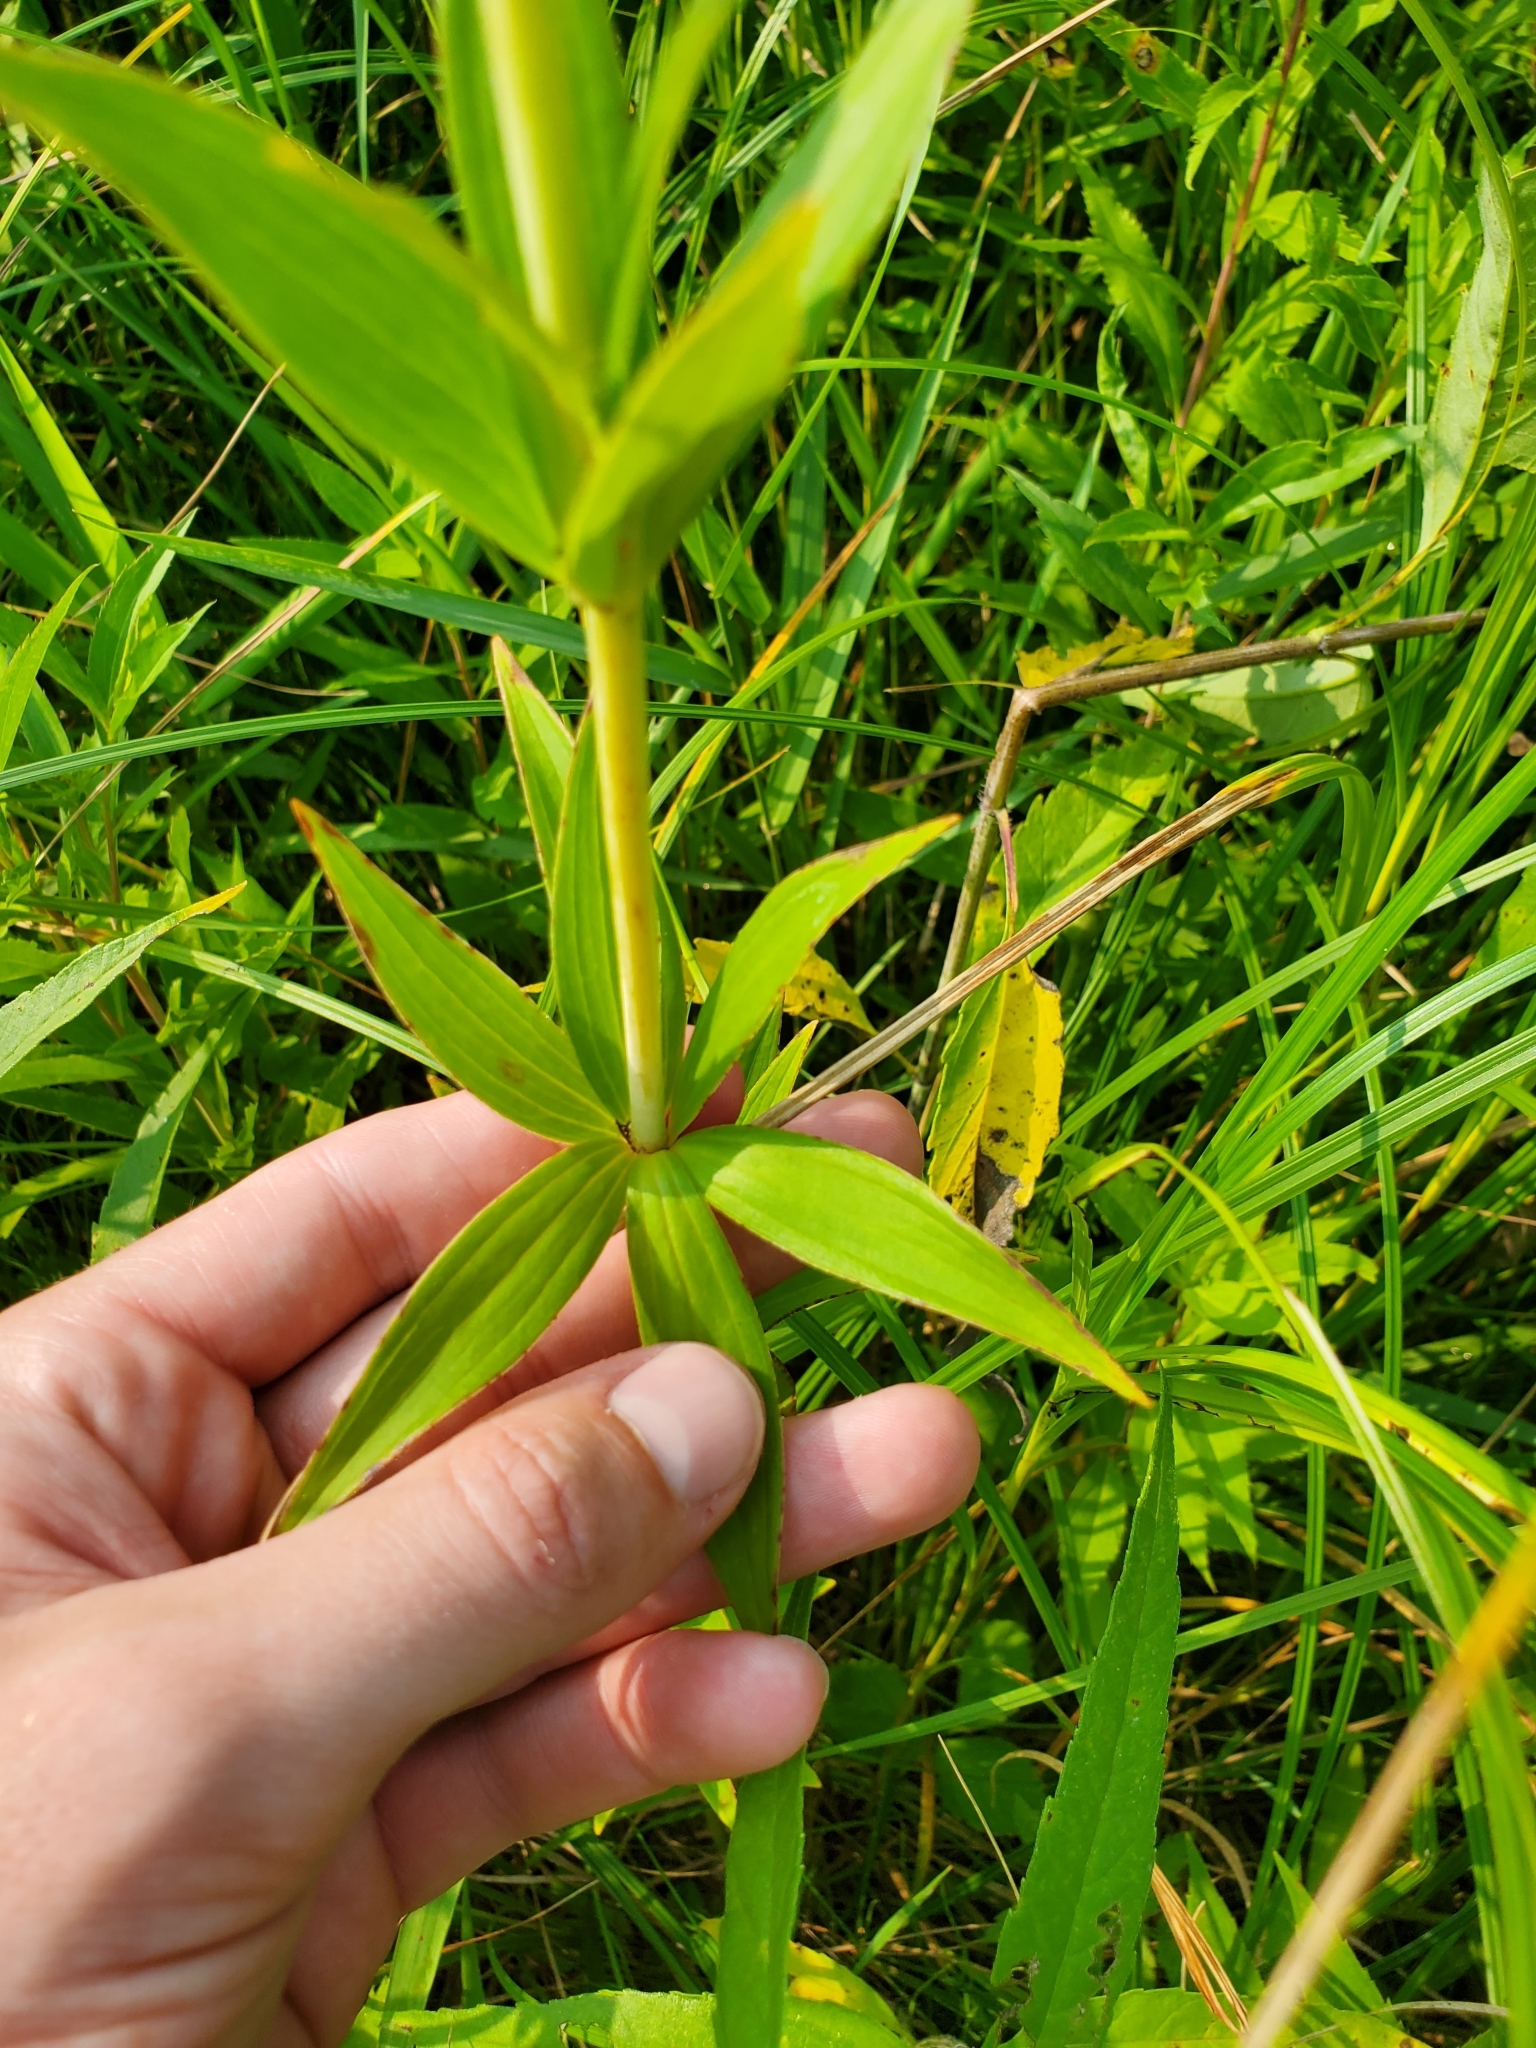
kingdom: Plantae
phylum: Tracheophyta
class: Liliopsida
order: Liliales
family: Liliaceae
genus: Lilium
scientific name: Lilium michiganense
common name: Michigan lily
